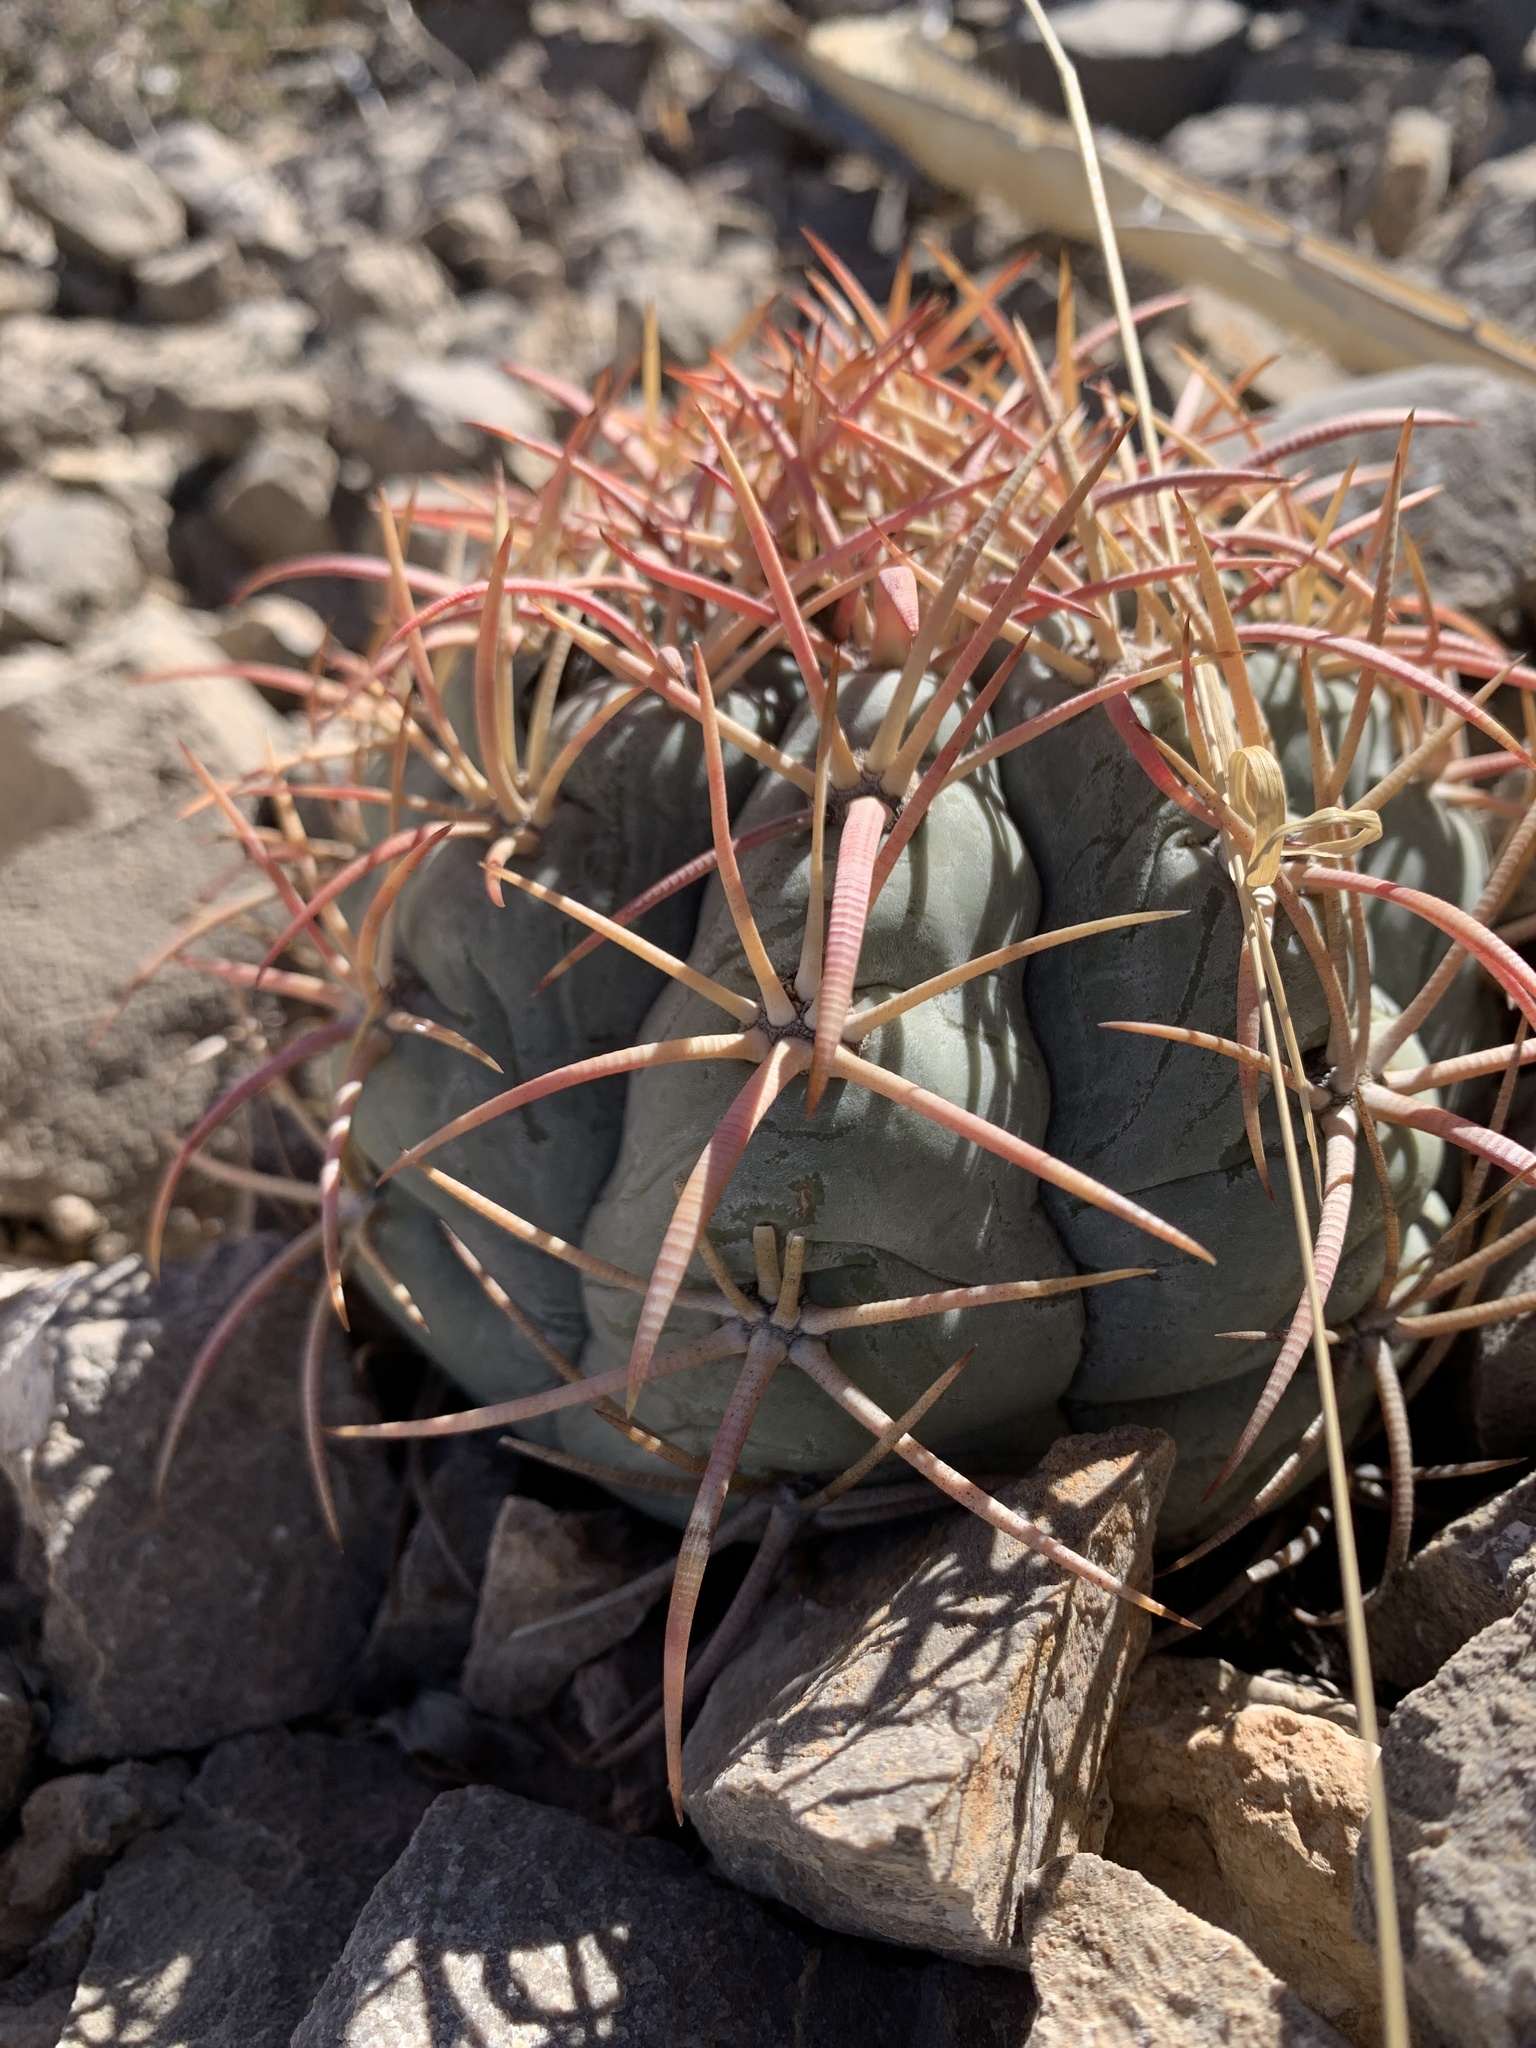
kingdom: Plantae
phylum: Tracheophyta
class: Magnoliopsida
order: Caryophyllales
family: Cactaceae
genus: Echinocactus
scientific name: Echinocactus horizonthalonius
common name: Devilshead
